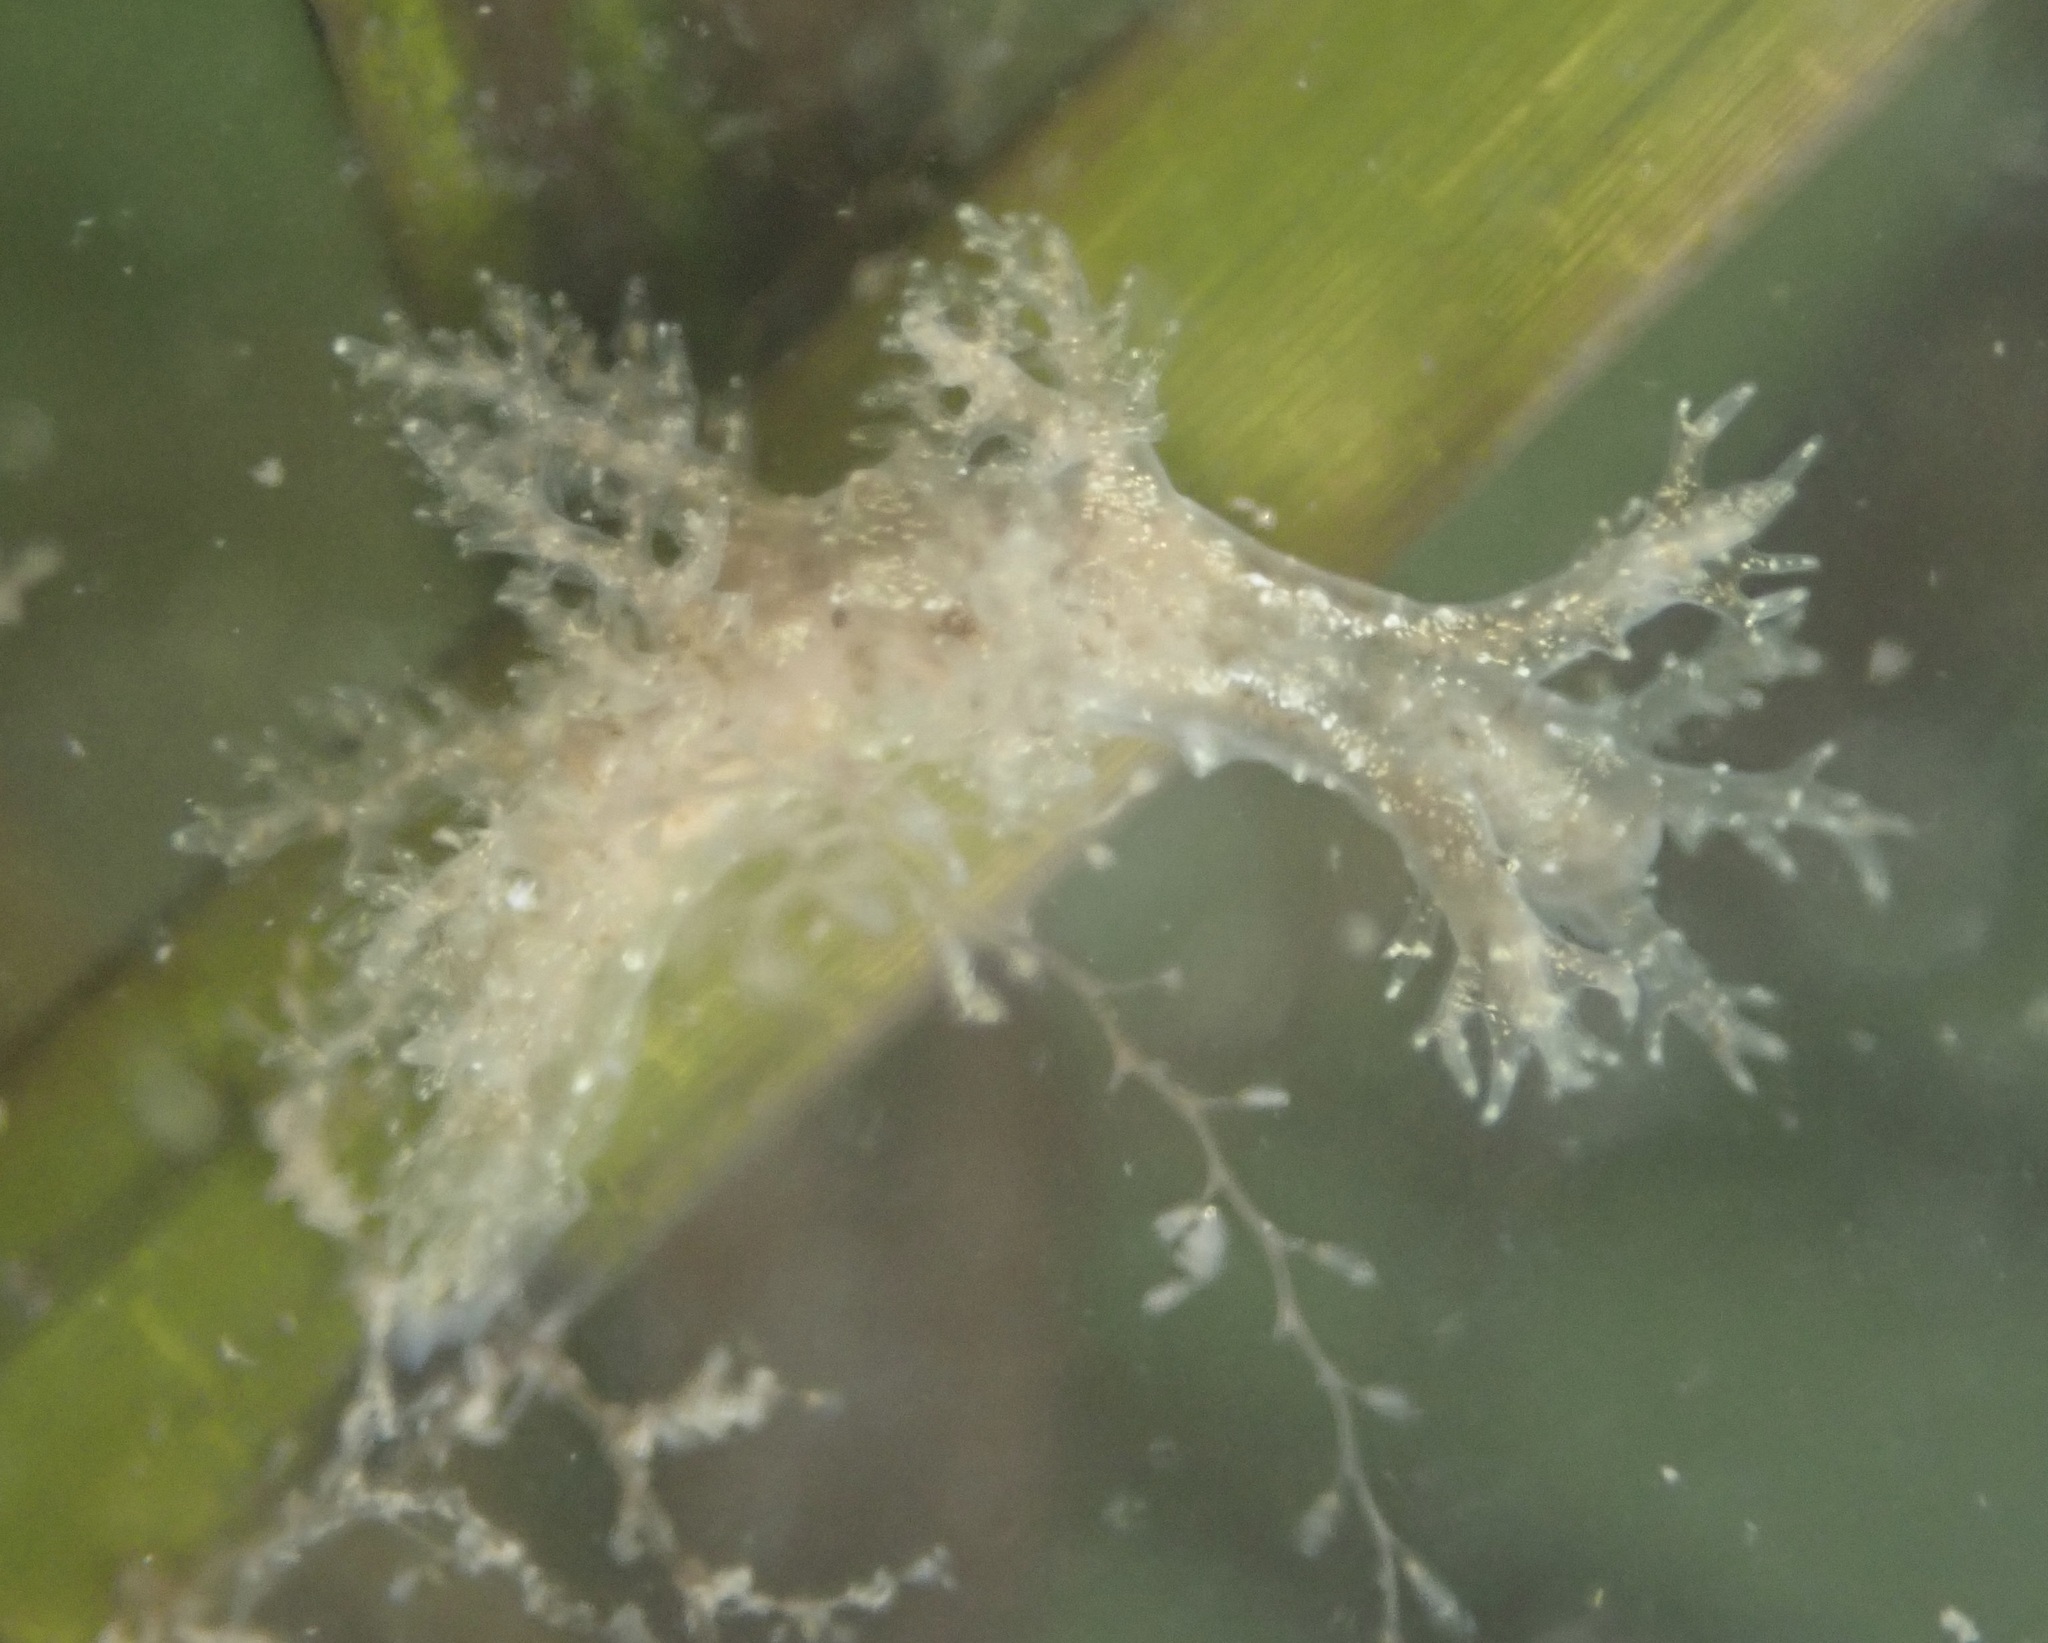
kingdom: Animalia
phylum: Mollusca
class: Gastropoda
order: Nudibranchia
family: Dendronotidae
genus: Dendronotus
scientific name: Dendronotus venustus
